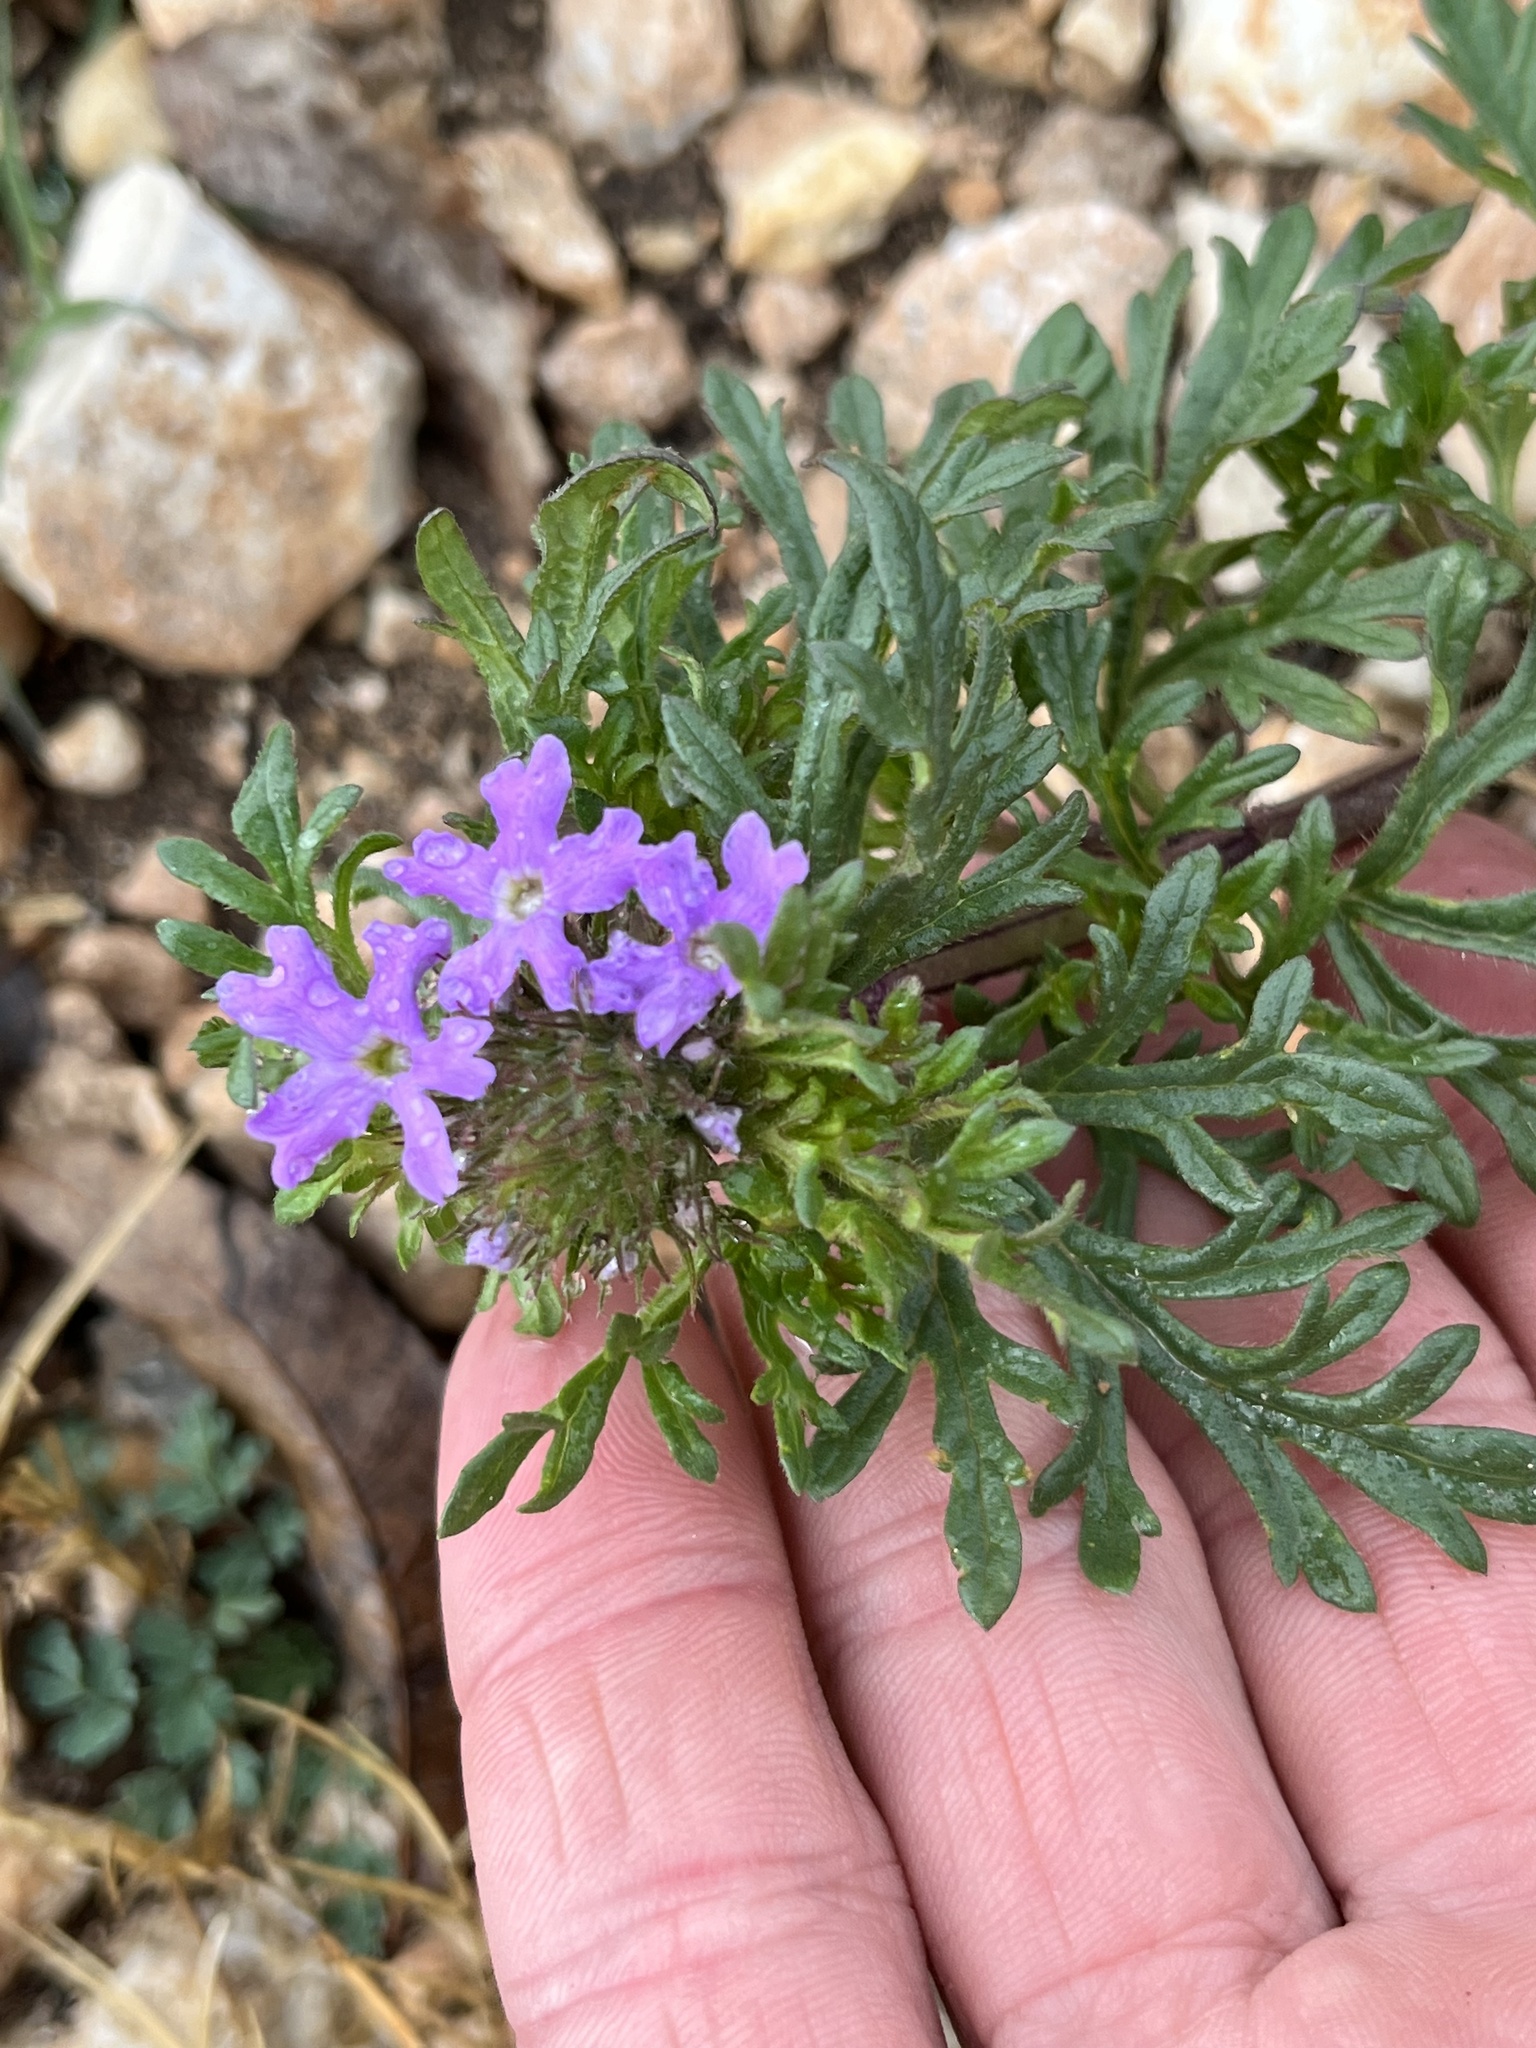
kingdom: Plantae
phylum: Tracheophyta
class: Magnoliopsida
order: Lamiales
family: Verbenaceae
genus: Verbena
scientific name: Verbena bipinnatifida
